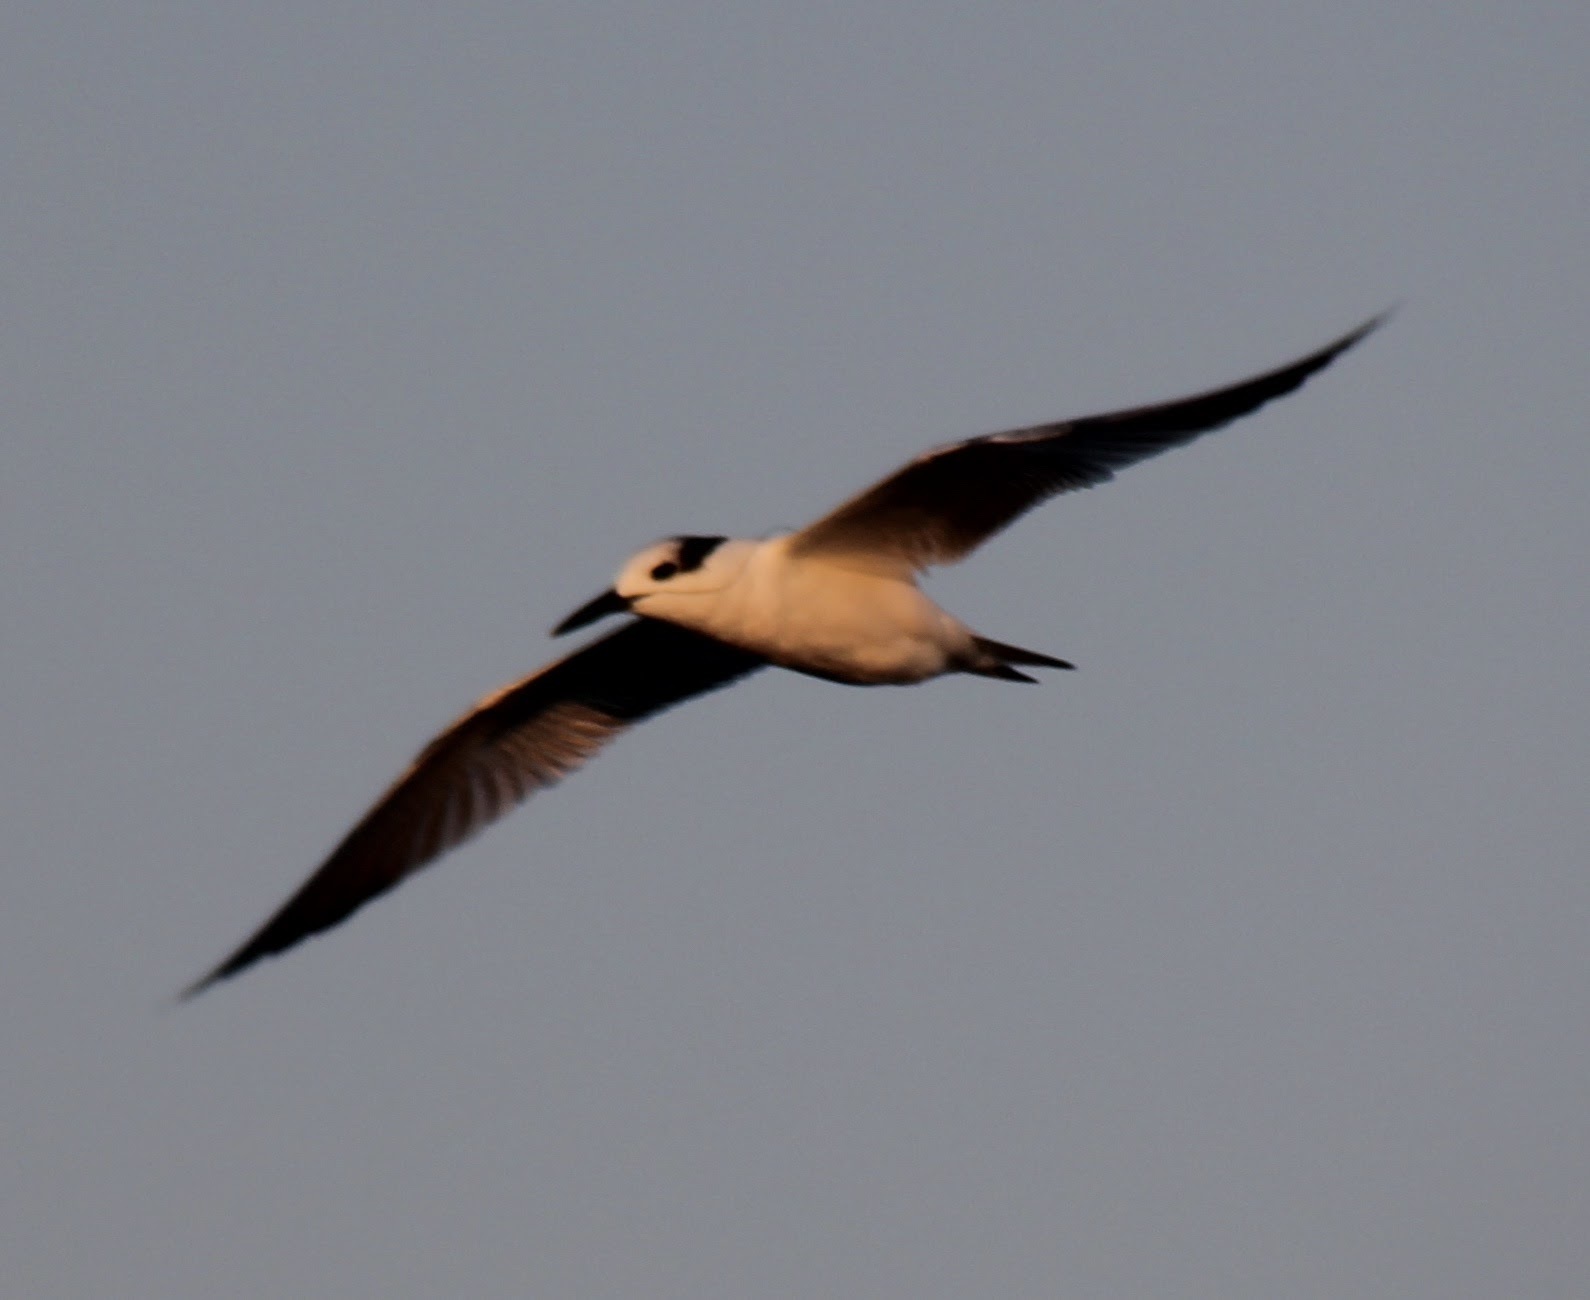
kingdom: Animalia
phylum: Chordata
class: Aves
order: Charadriiformes
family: Laridae
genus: Thalasseus
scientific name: Thalasseus sandvicensis
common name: Sandwich tern
